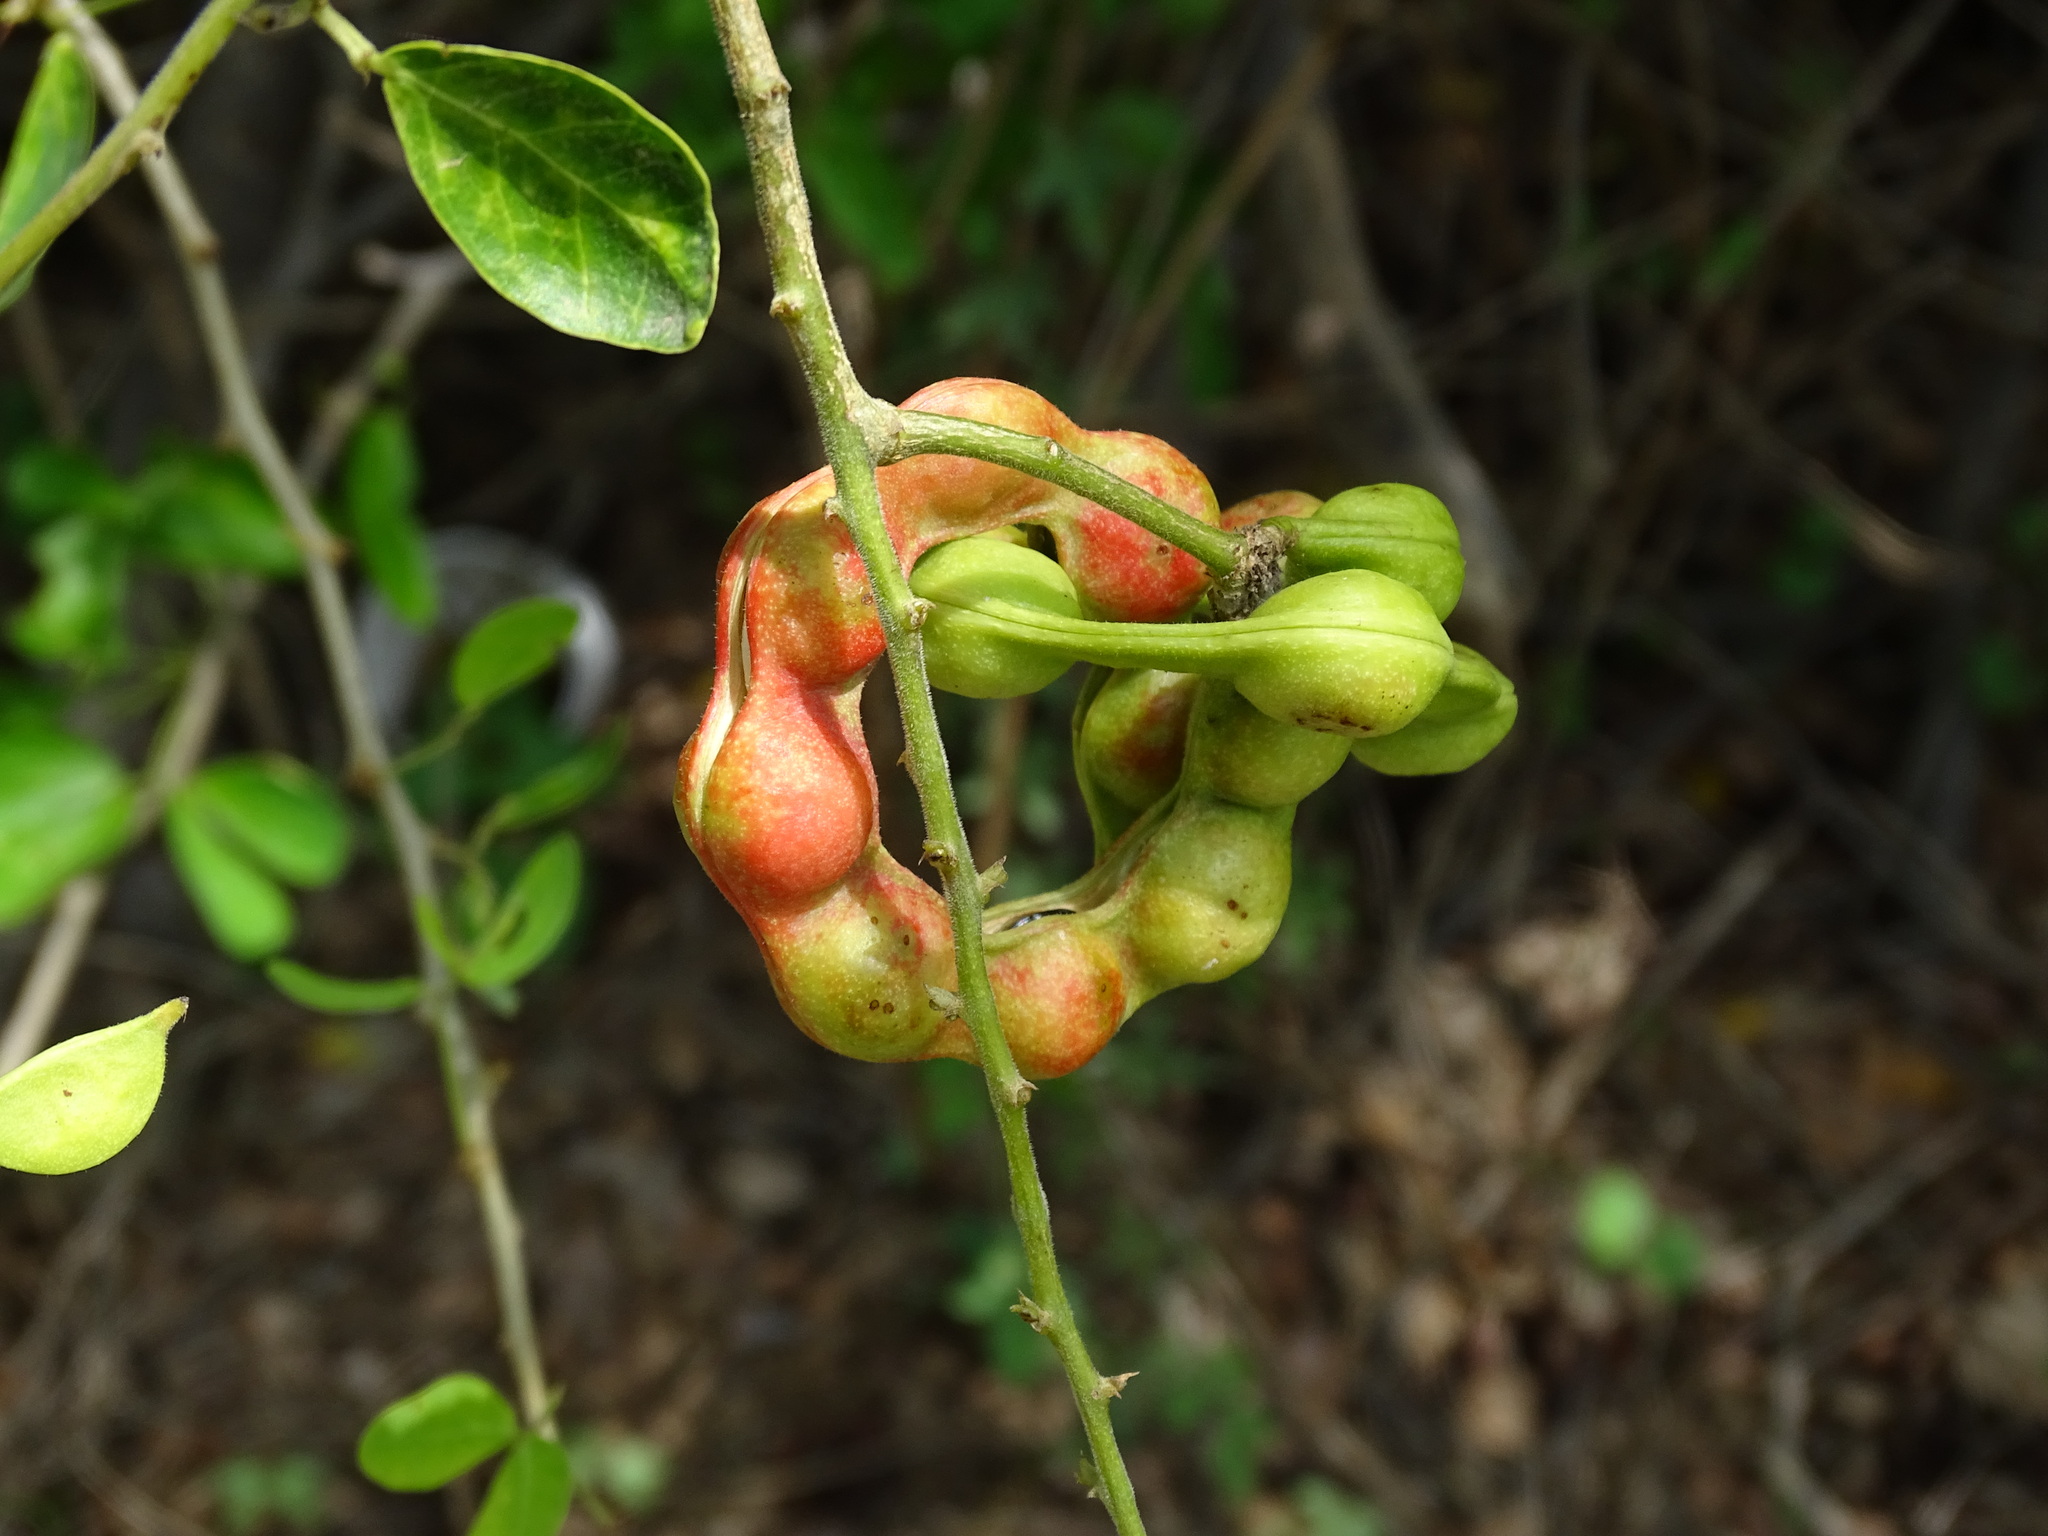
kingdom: Plantae
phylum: Tracheophyta
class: Magnoliopsida
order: Fabales
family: Fabaceae
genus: Pithecellobium
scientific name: Pithecellobium dulce
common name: Monkeypod
